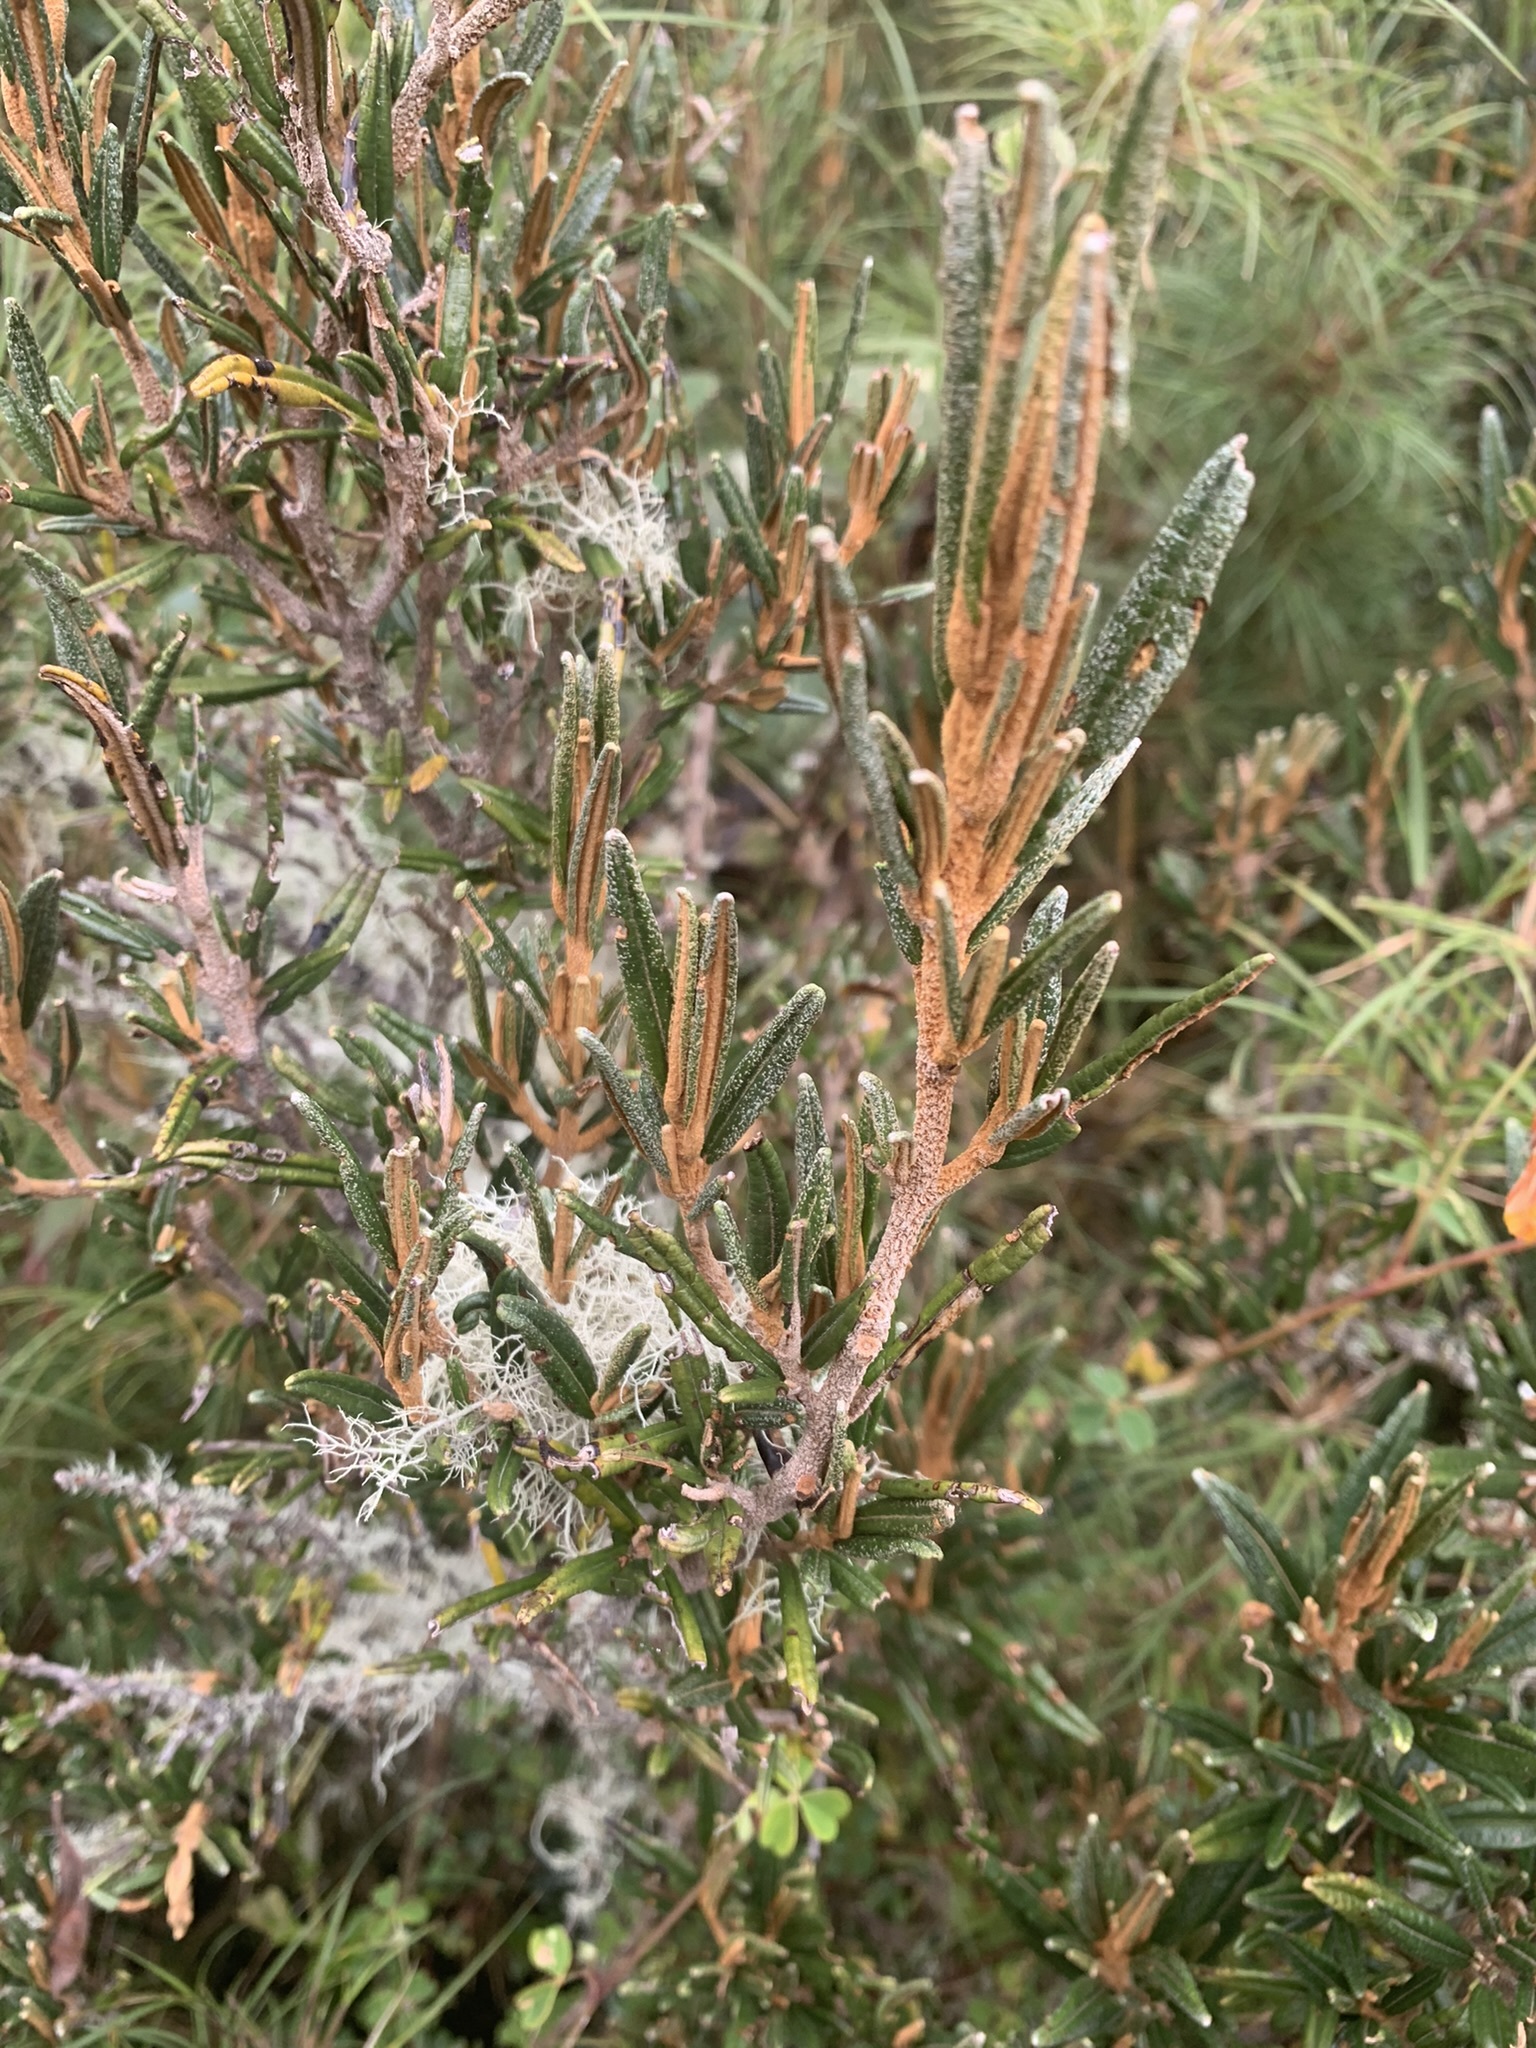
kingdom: Plantae
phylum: Tracheophyta
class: Magnoliopsida
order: Myrtales
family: Melastomataceae
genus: Miconia
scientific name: Miconia salicifolia
